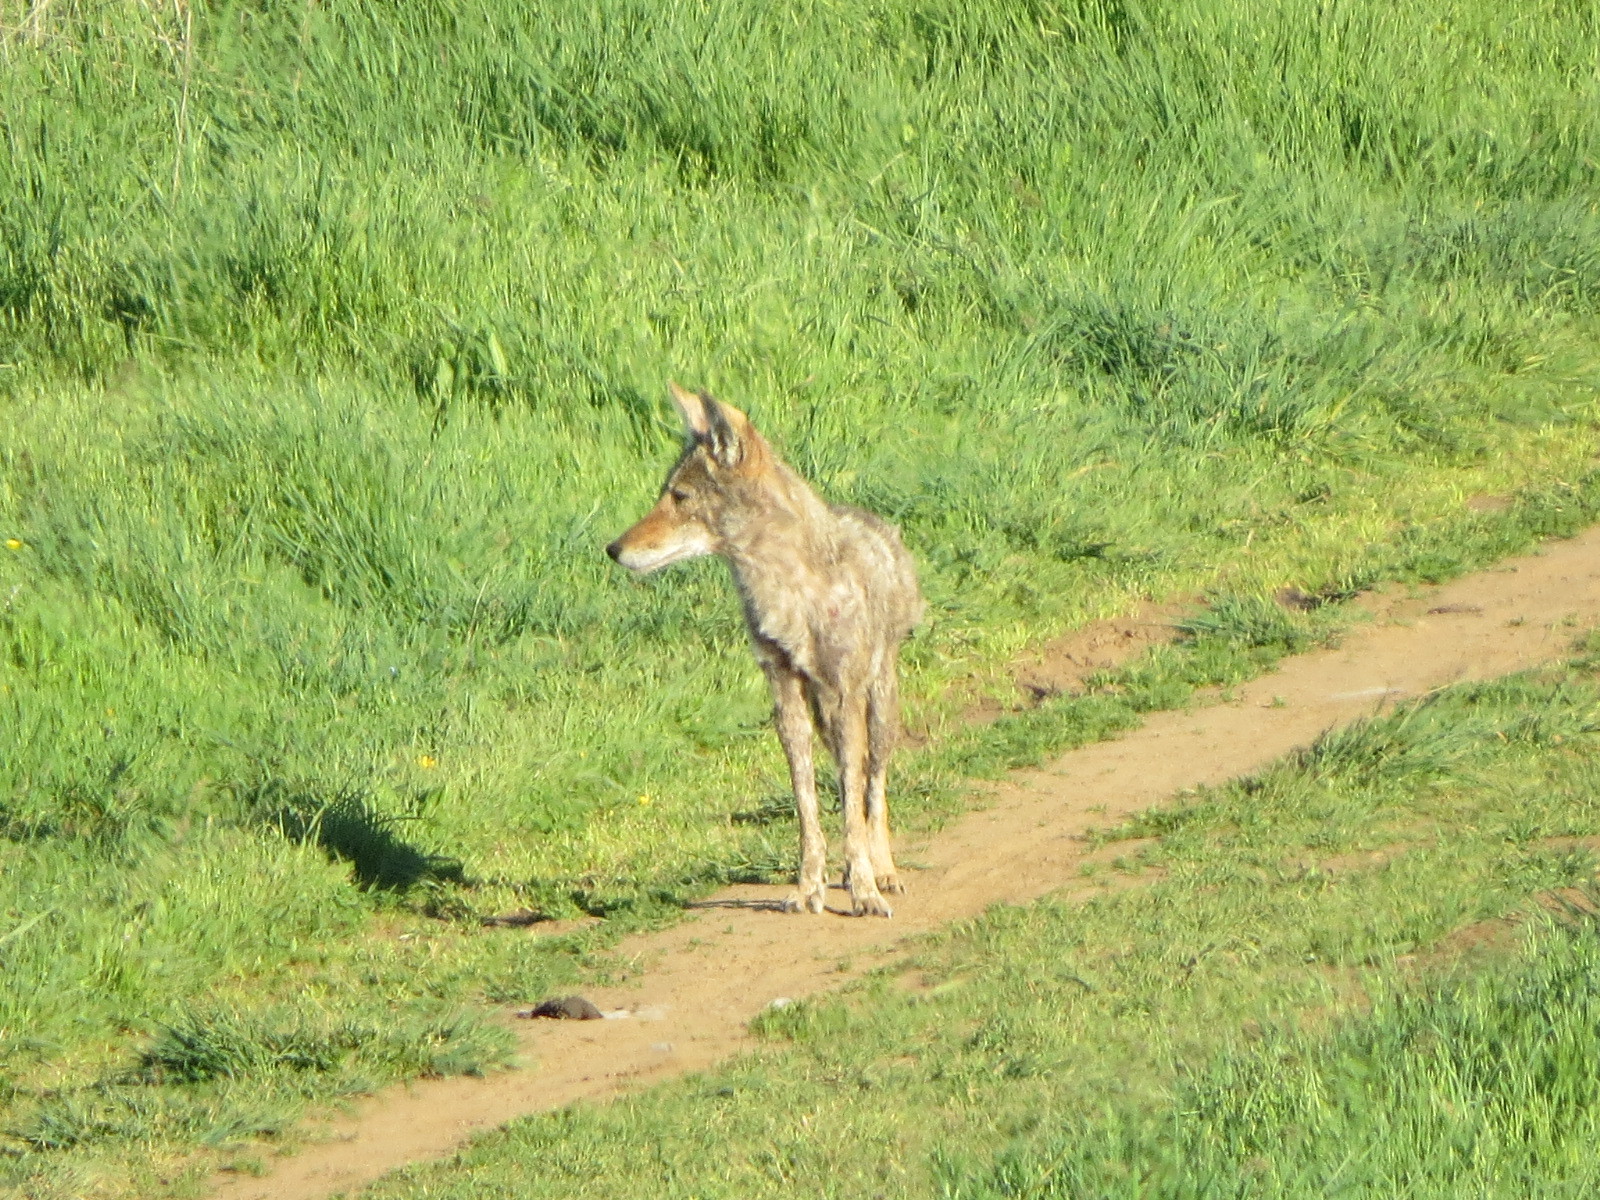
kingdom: Animalia
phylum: Chordata
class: Mammalia
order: Carnivora
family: Canidae
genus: Canis
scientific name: Canis latrans
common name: Coyote
